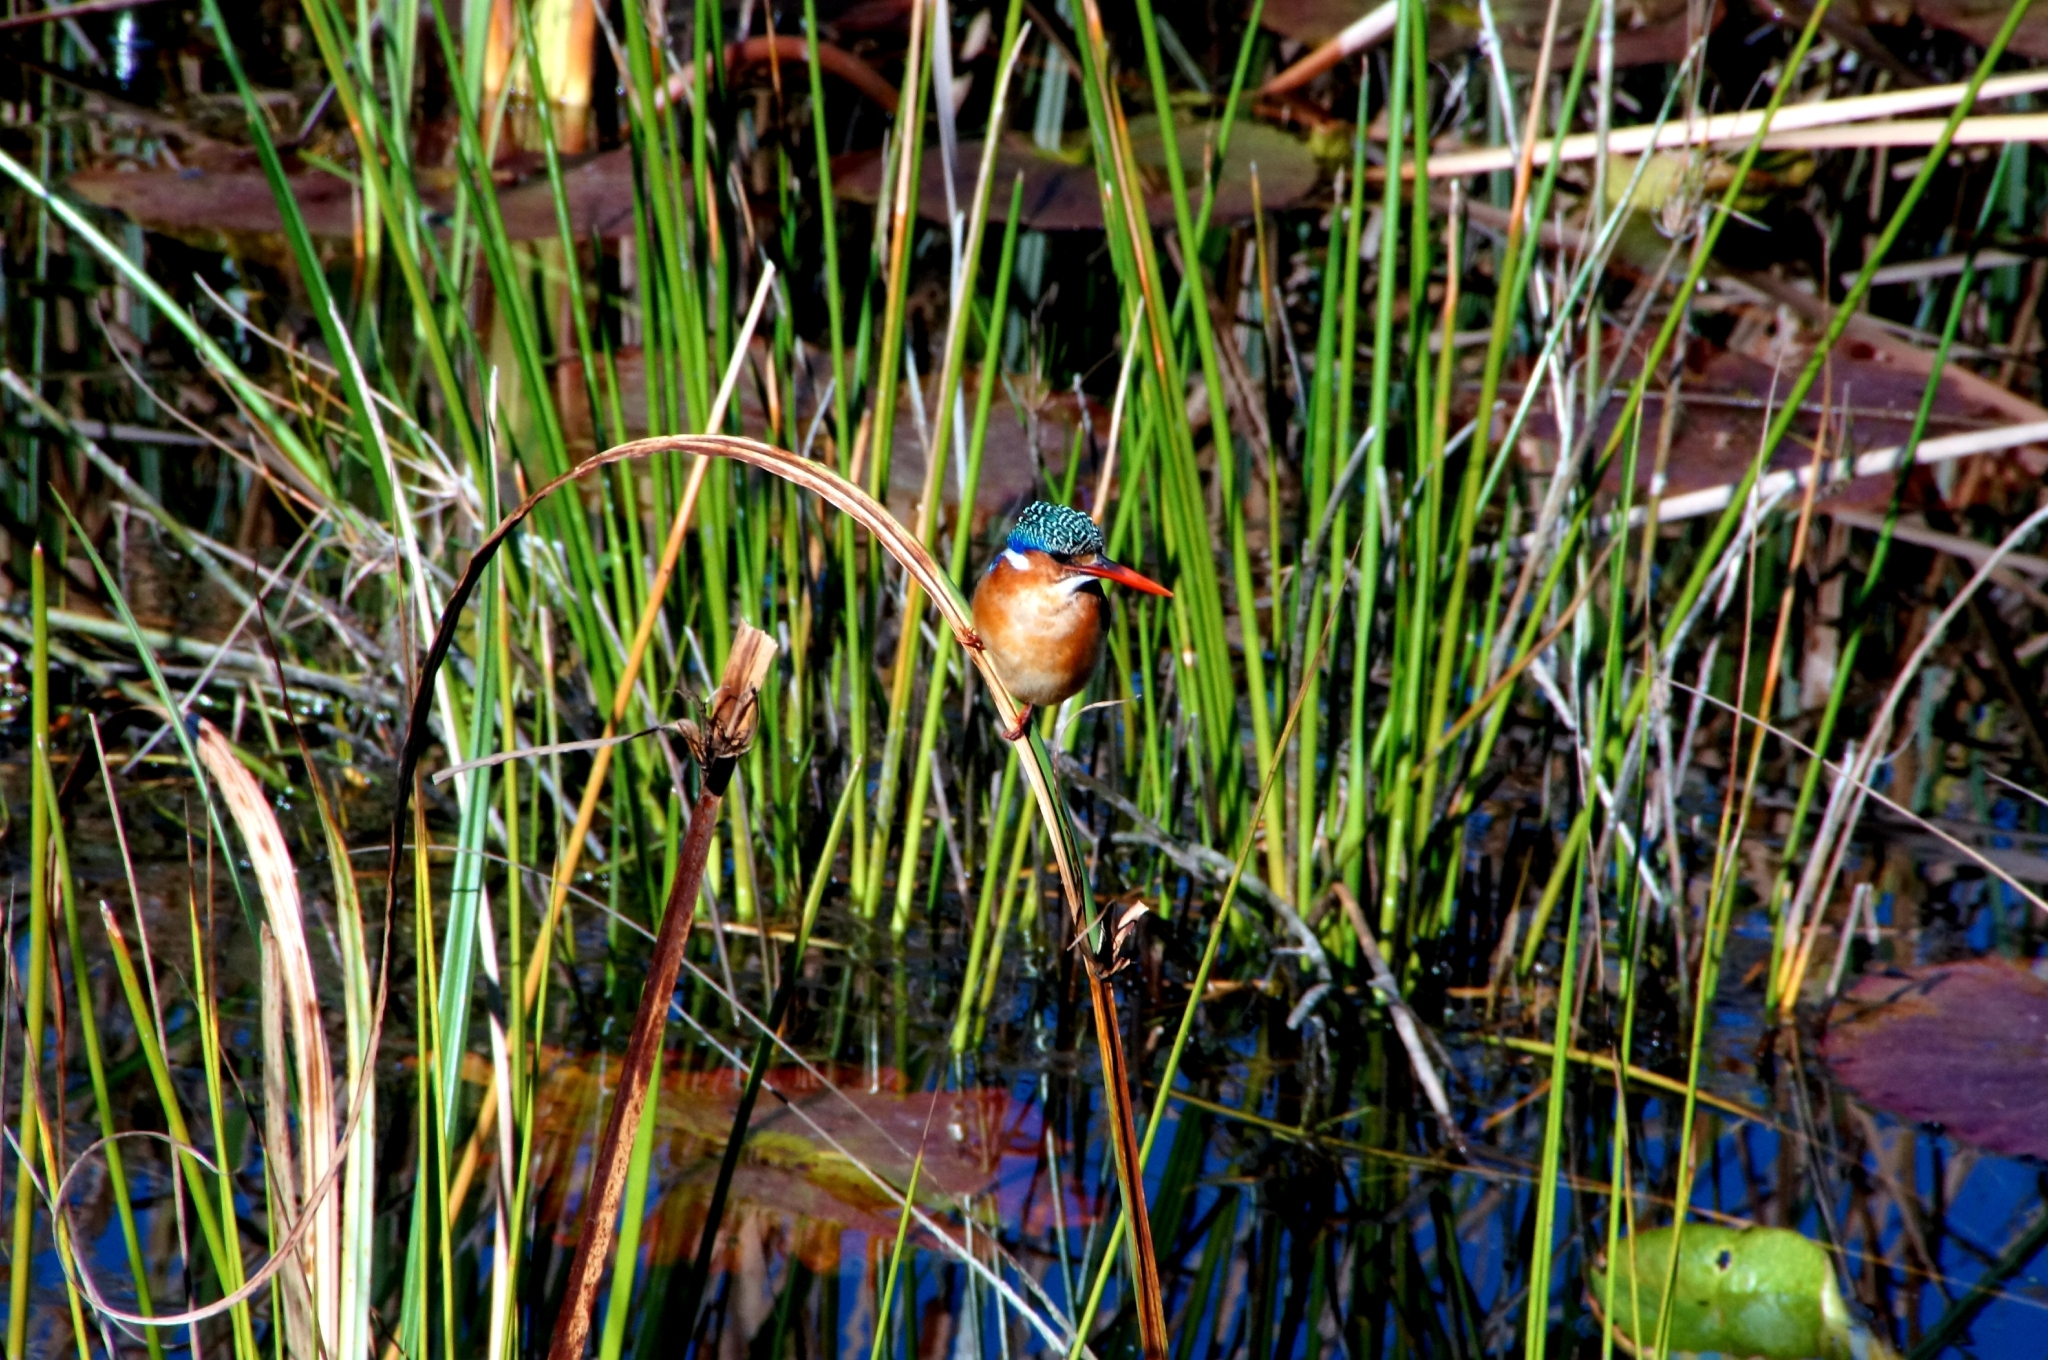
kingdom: Animalia
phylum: Chordata
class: Aves
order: Coraciiformes
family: Alcedinidae
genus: Corythornis
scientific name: Corythornis cristatus
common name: Malachite kingfisher
